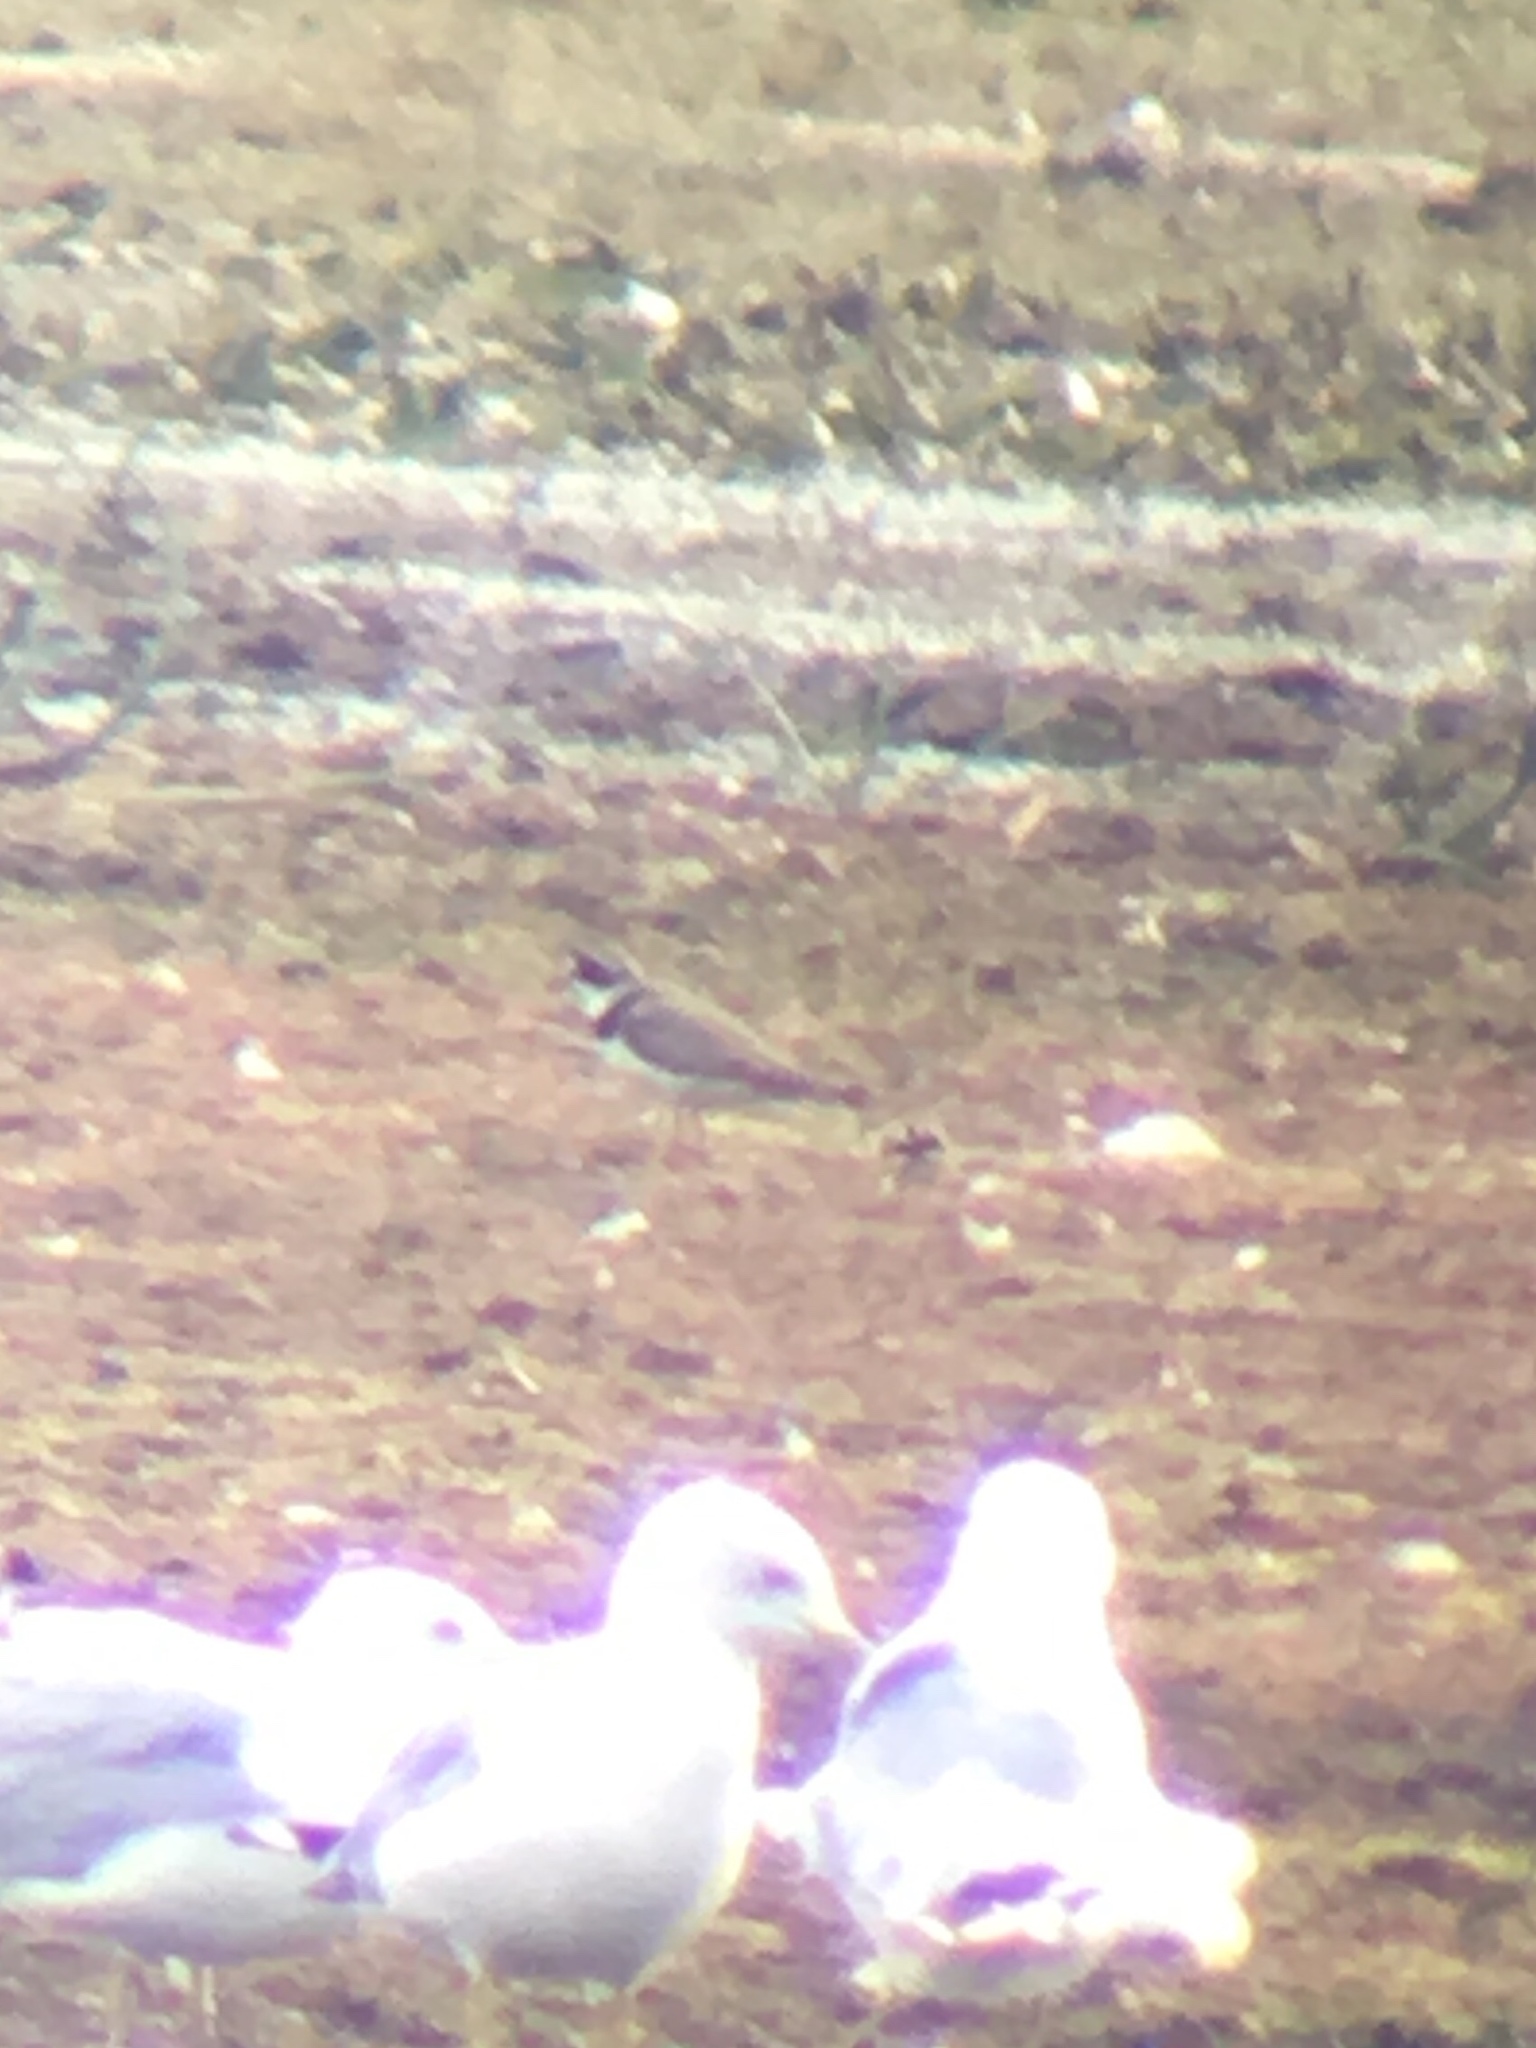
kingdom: Animalia
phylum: Chordata
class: Aves
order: Charadriiformes
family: Charadriidae
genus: Charadrius
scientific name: Charadrius semipalmatus
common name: Semipalmated plover
